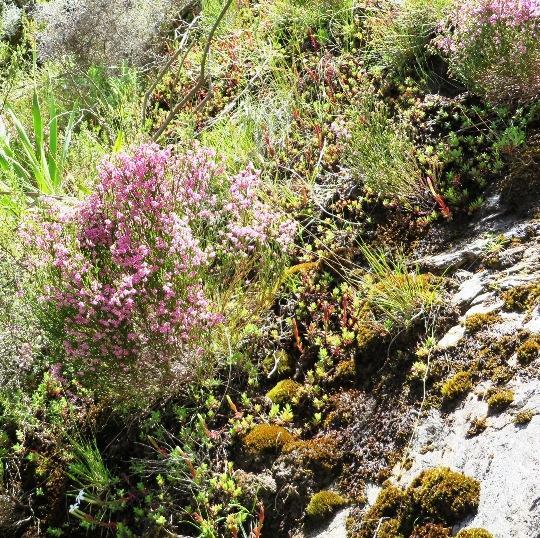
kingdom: Plantae
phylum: Tracheophyta
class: Magnoliopsida
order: Ericales
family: Ericaceae
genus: Erica
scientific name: Erica humifusa
